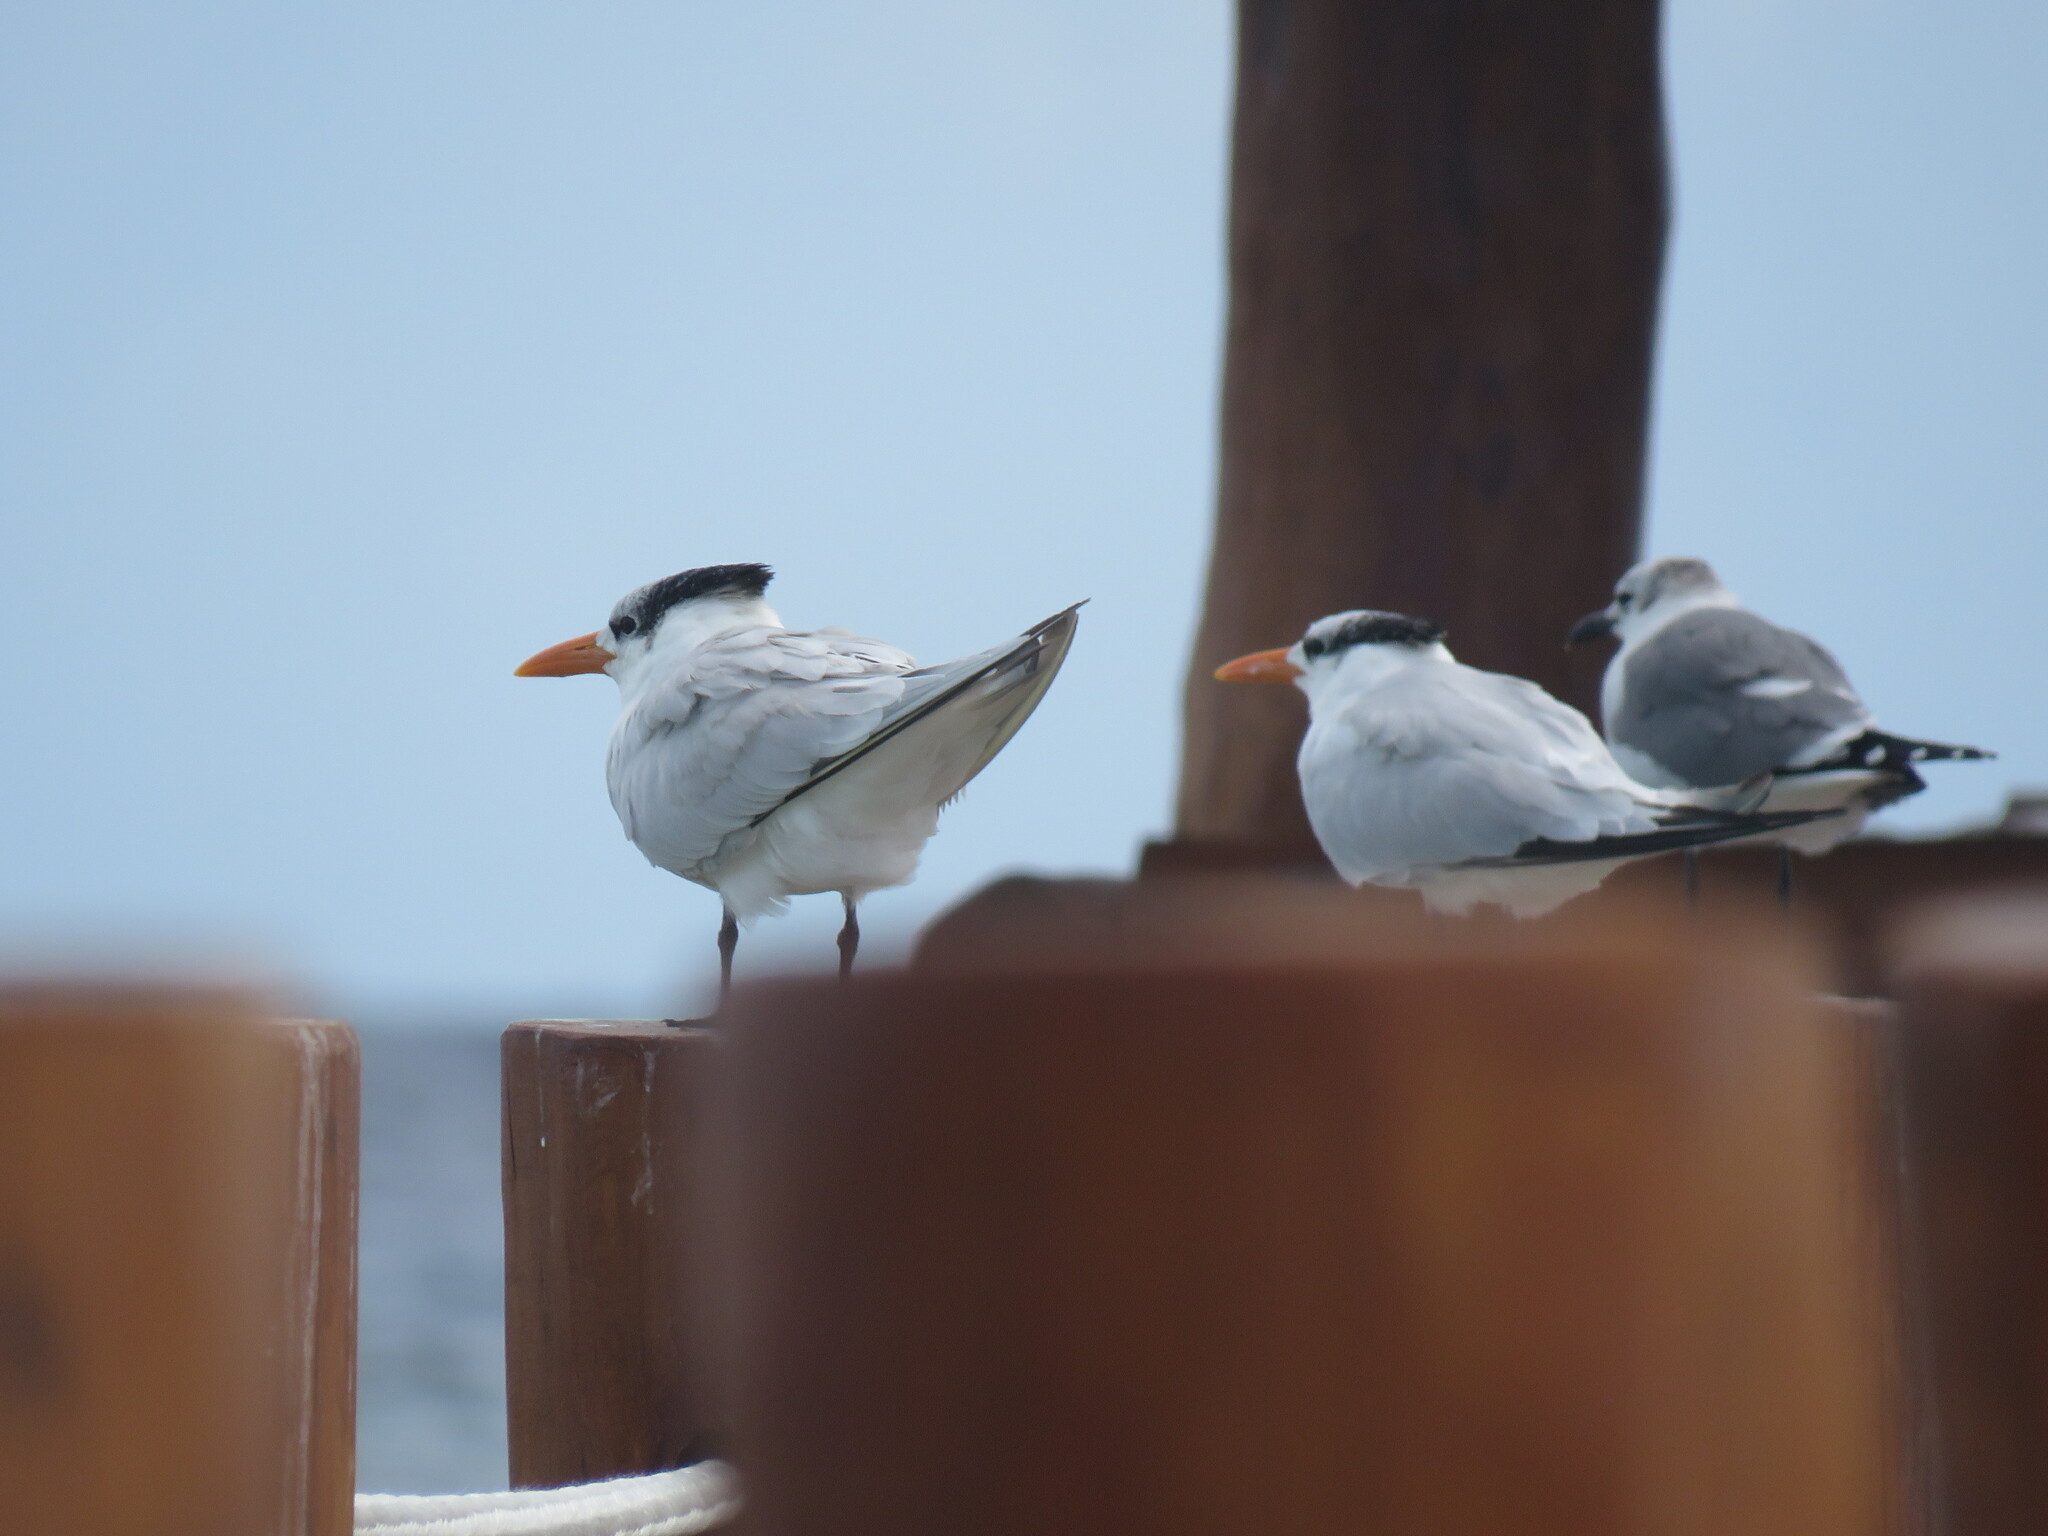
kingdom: Animalia
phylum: Chordata
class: Aves
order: Charadriiformes
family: Laridae
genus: Thalasseus
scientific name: Thalasseus maximus
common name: Royal tern
